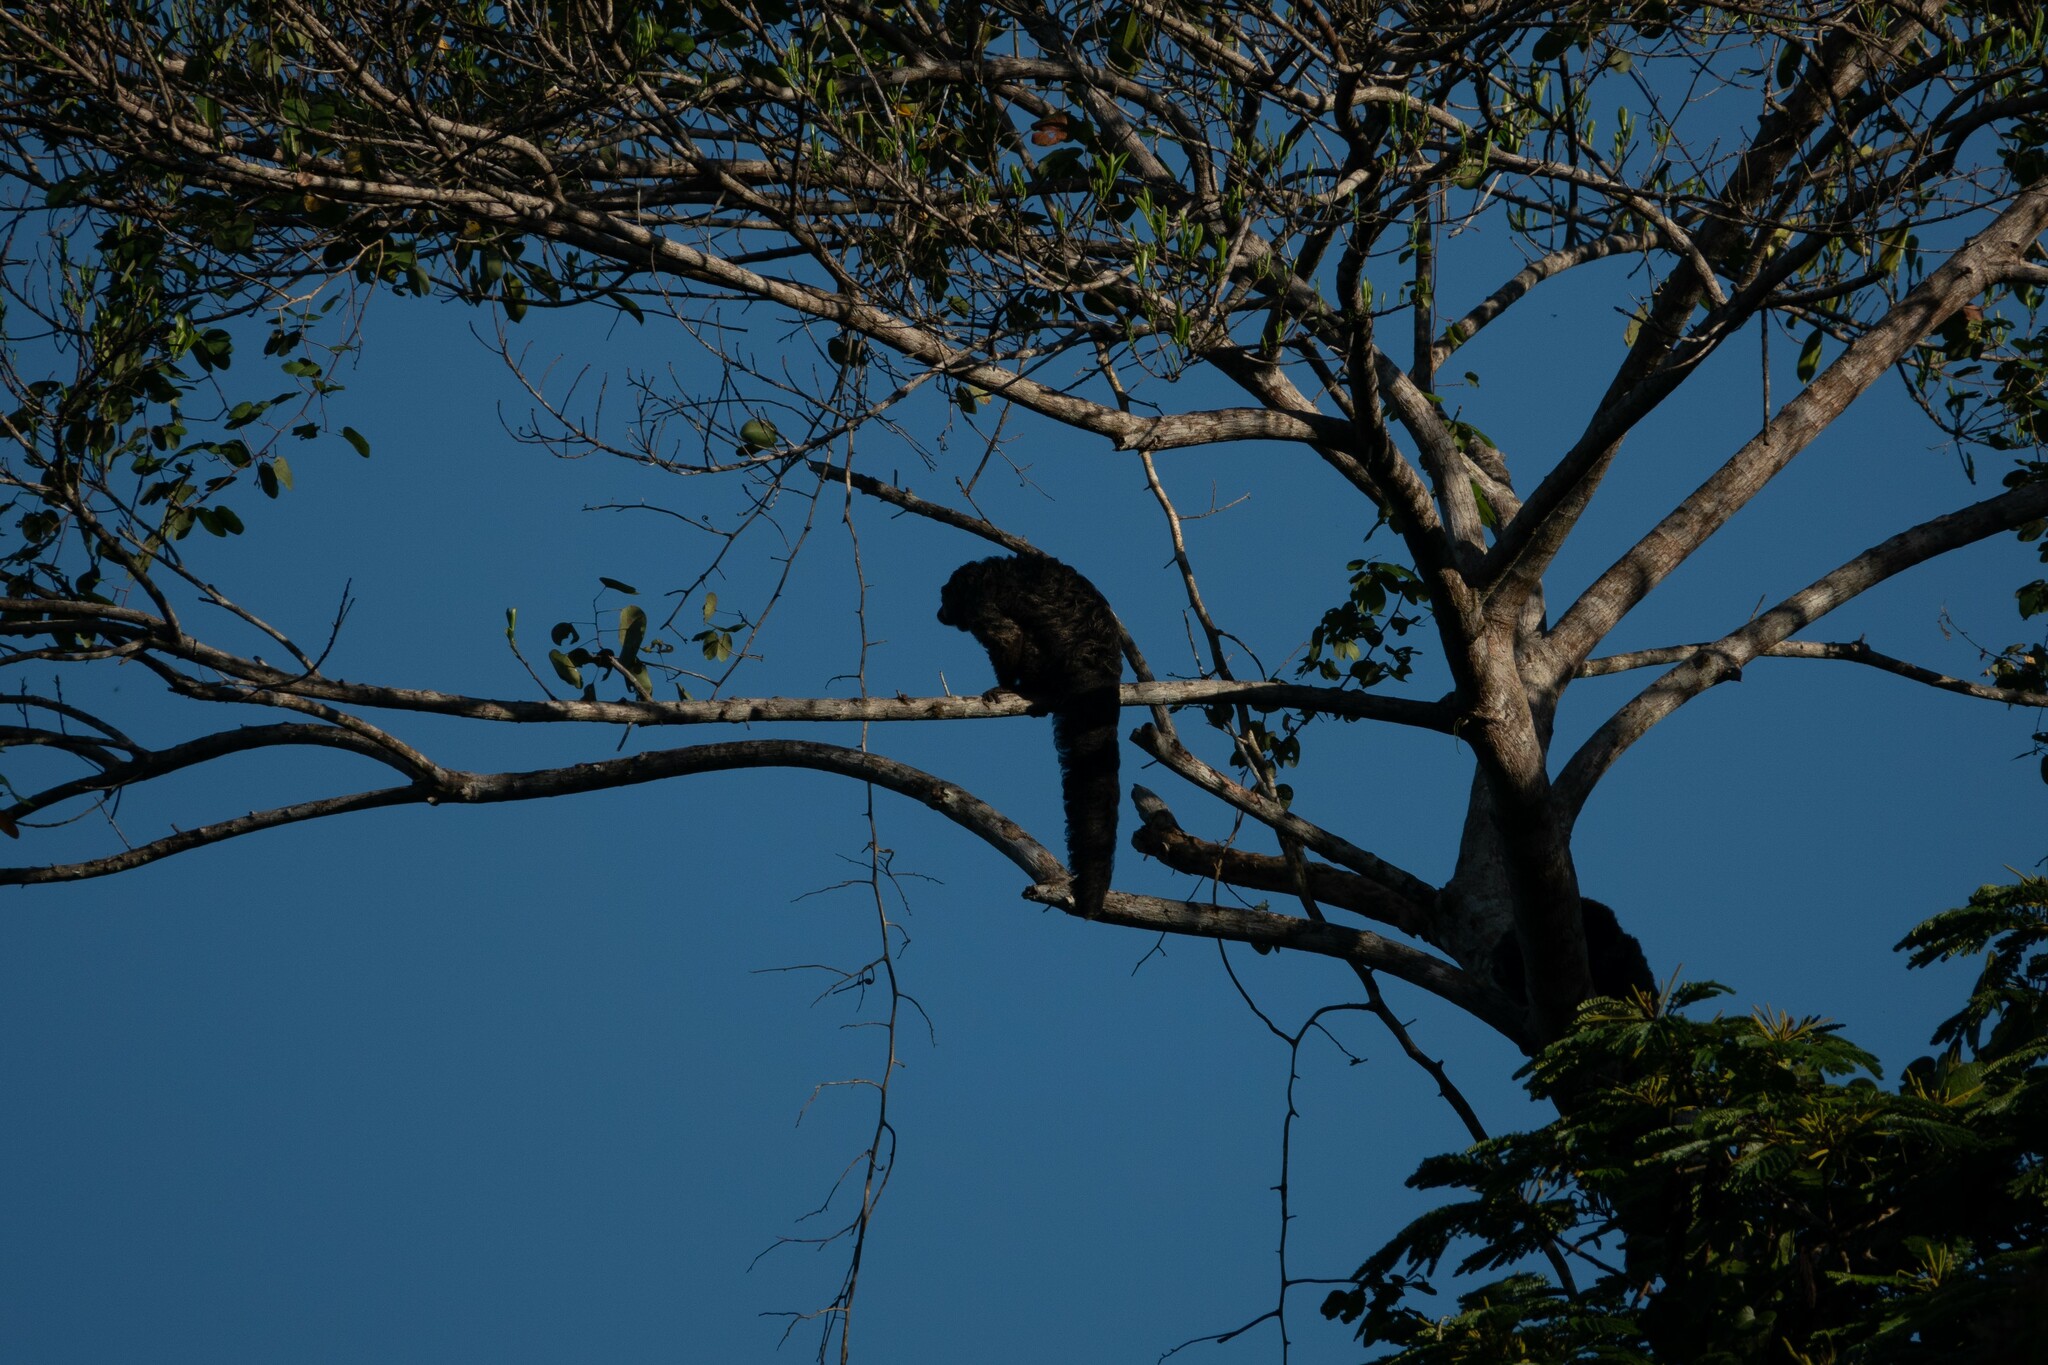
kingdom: Animalia
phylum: Chordata
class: Mammalia
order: Primates
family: Pitheciidae
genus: Pithecia
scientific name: Pithecia milleri
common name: Miller's saki
